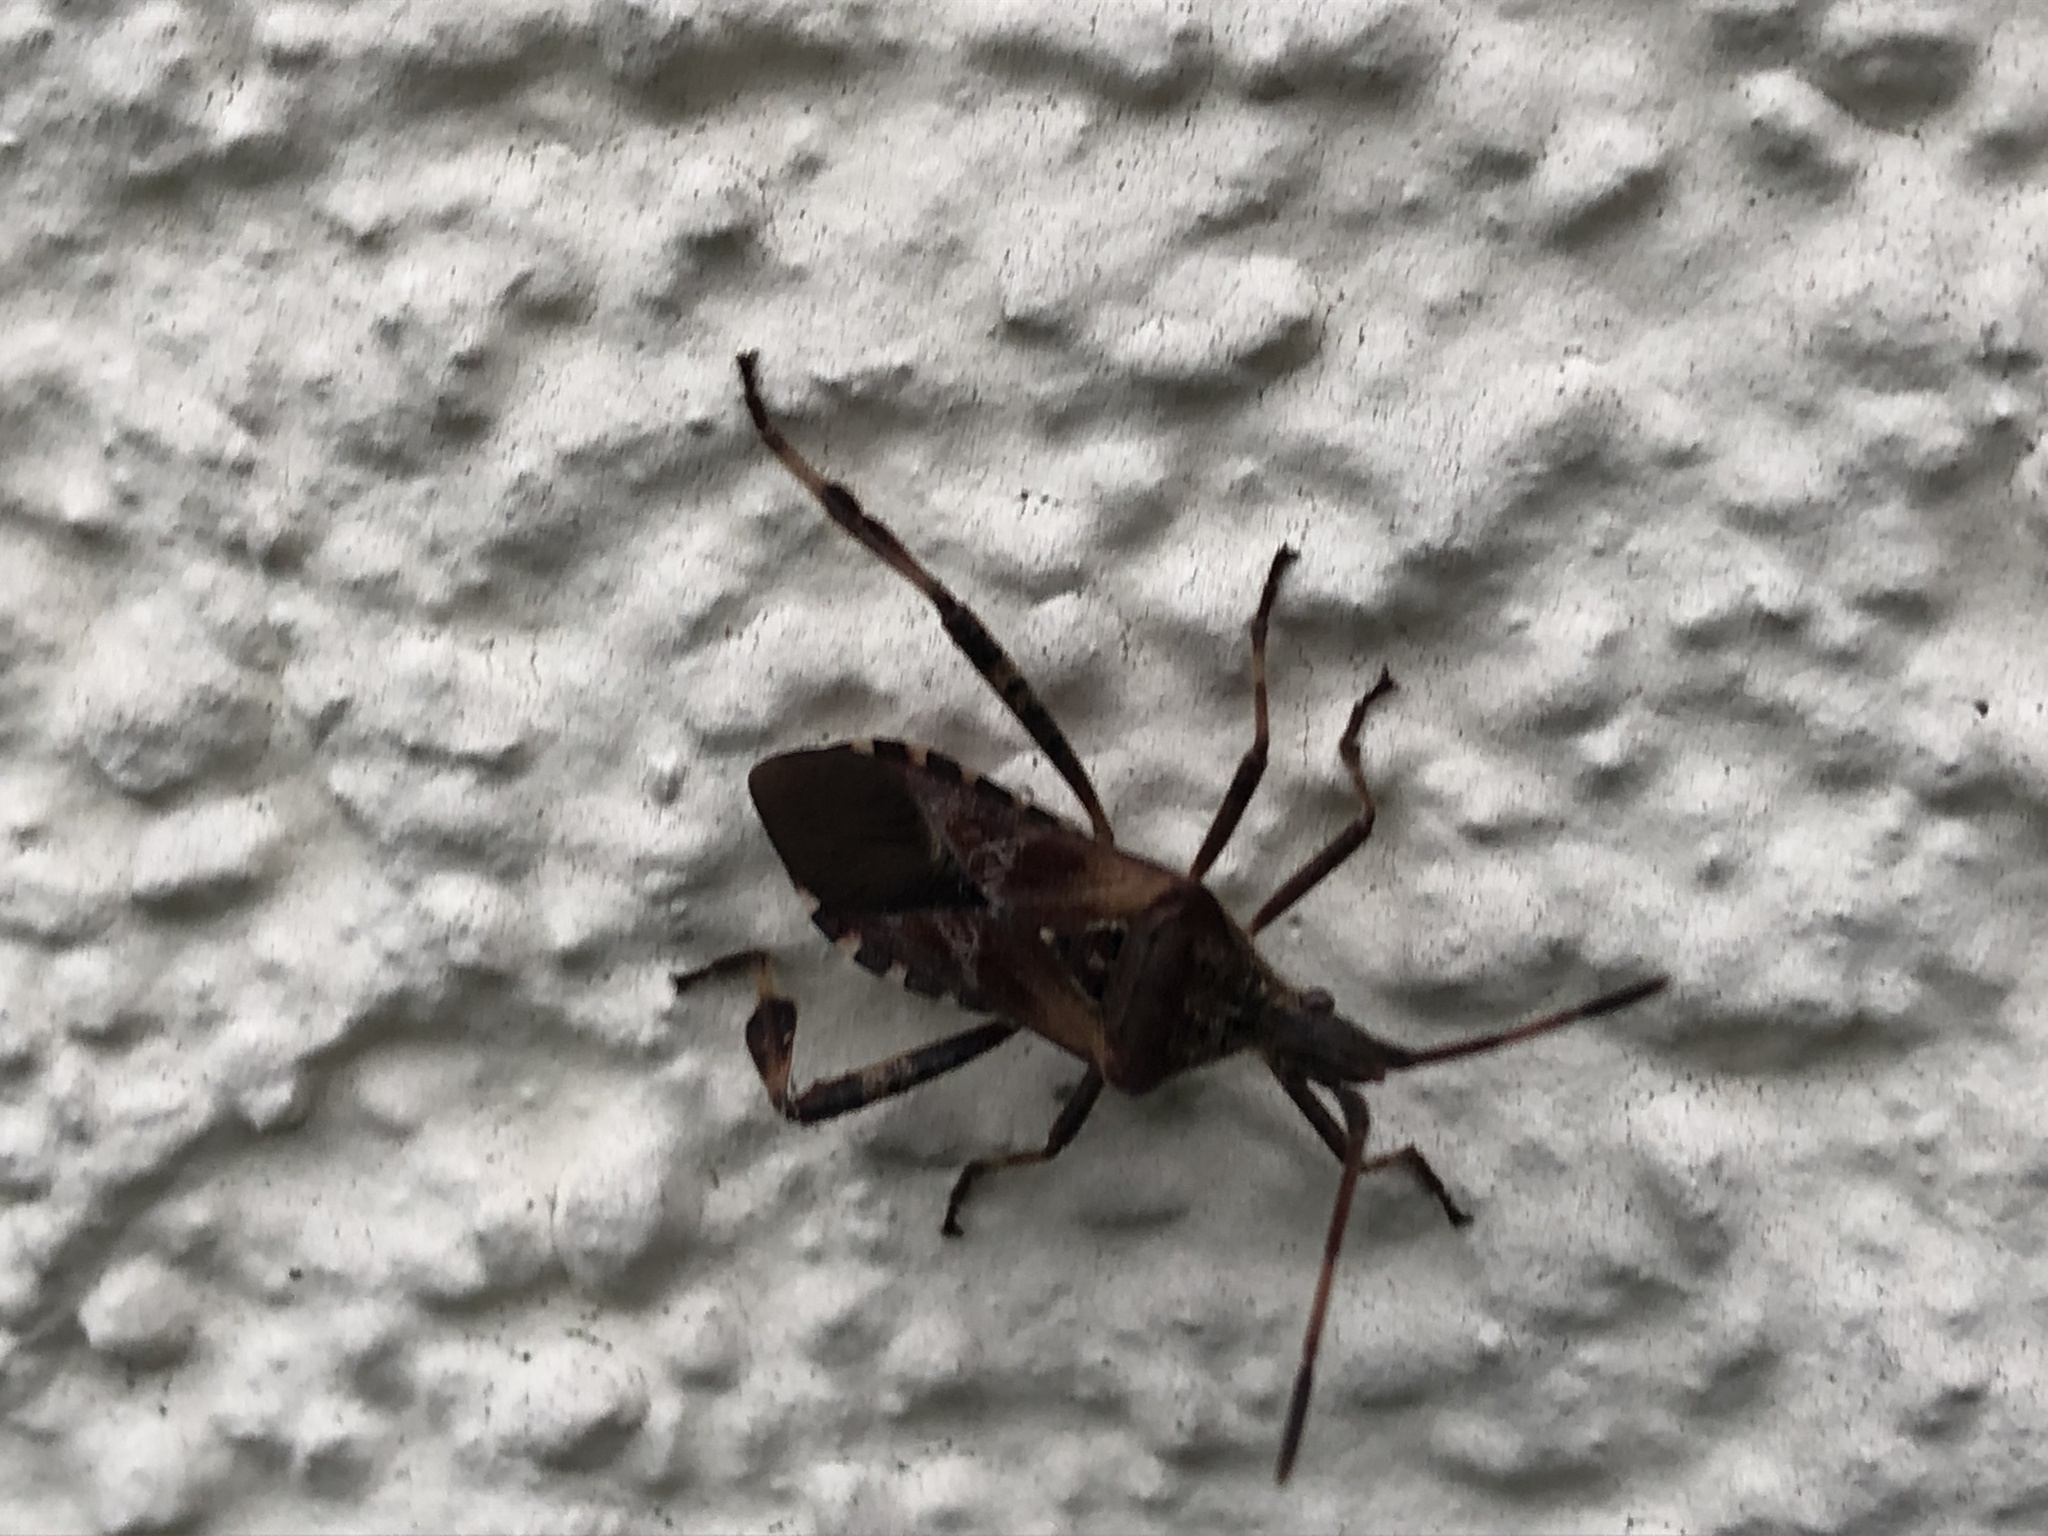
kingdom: Animalia
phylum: Arthropoda
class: Insecta
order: Hemiptera
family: Coreidae
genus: Leptoglossus
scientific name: Leptoglossus occidentalis
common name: Western conifer-seed bug
